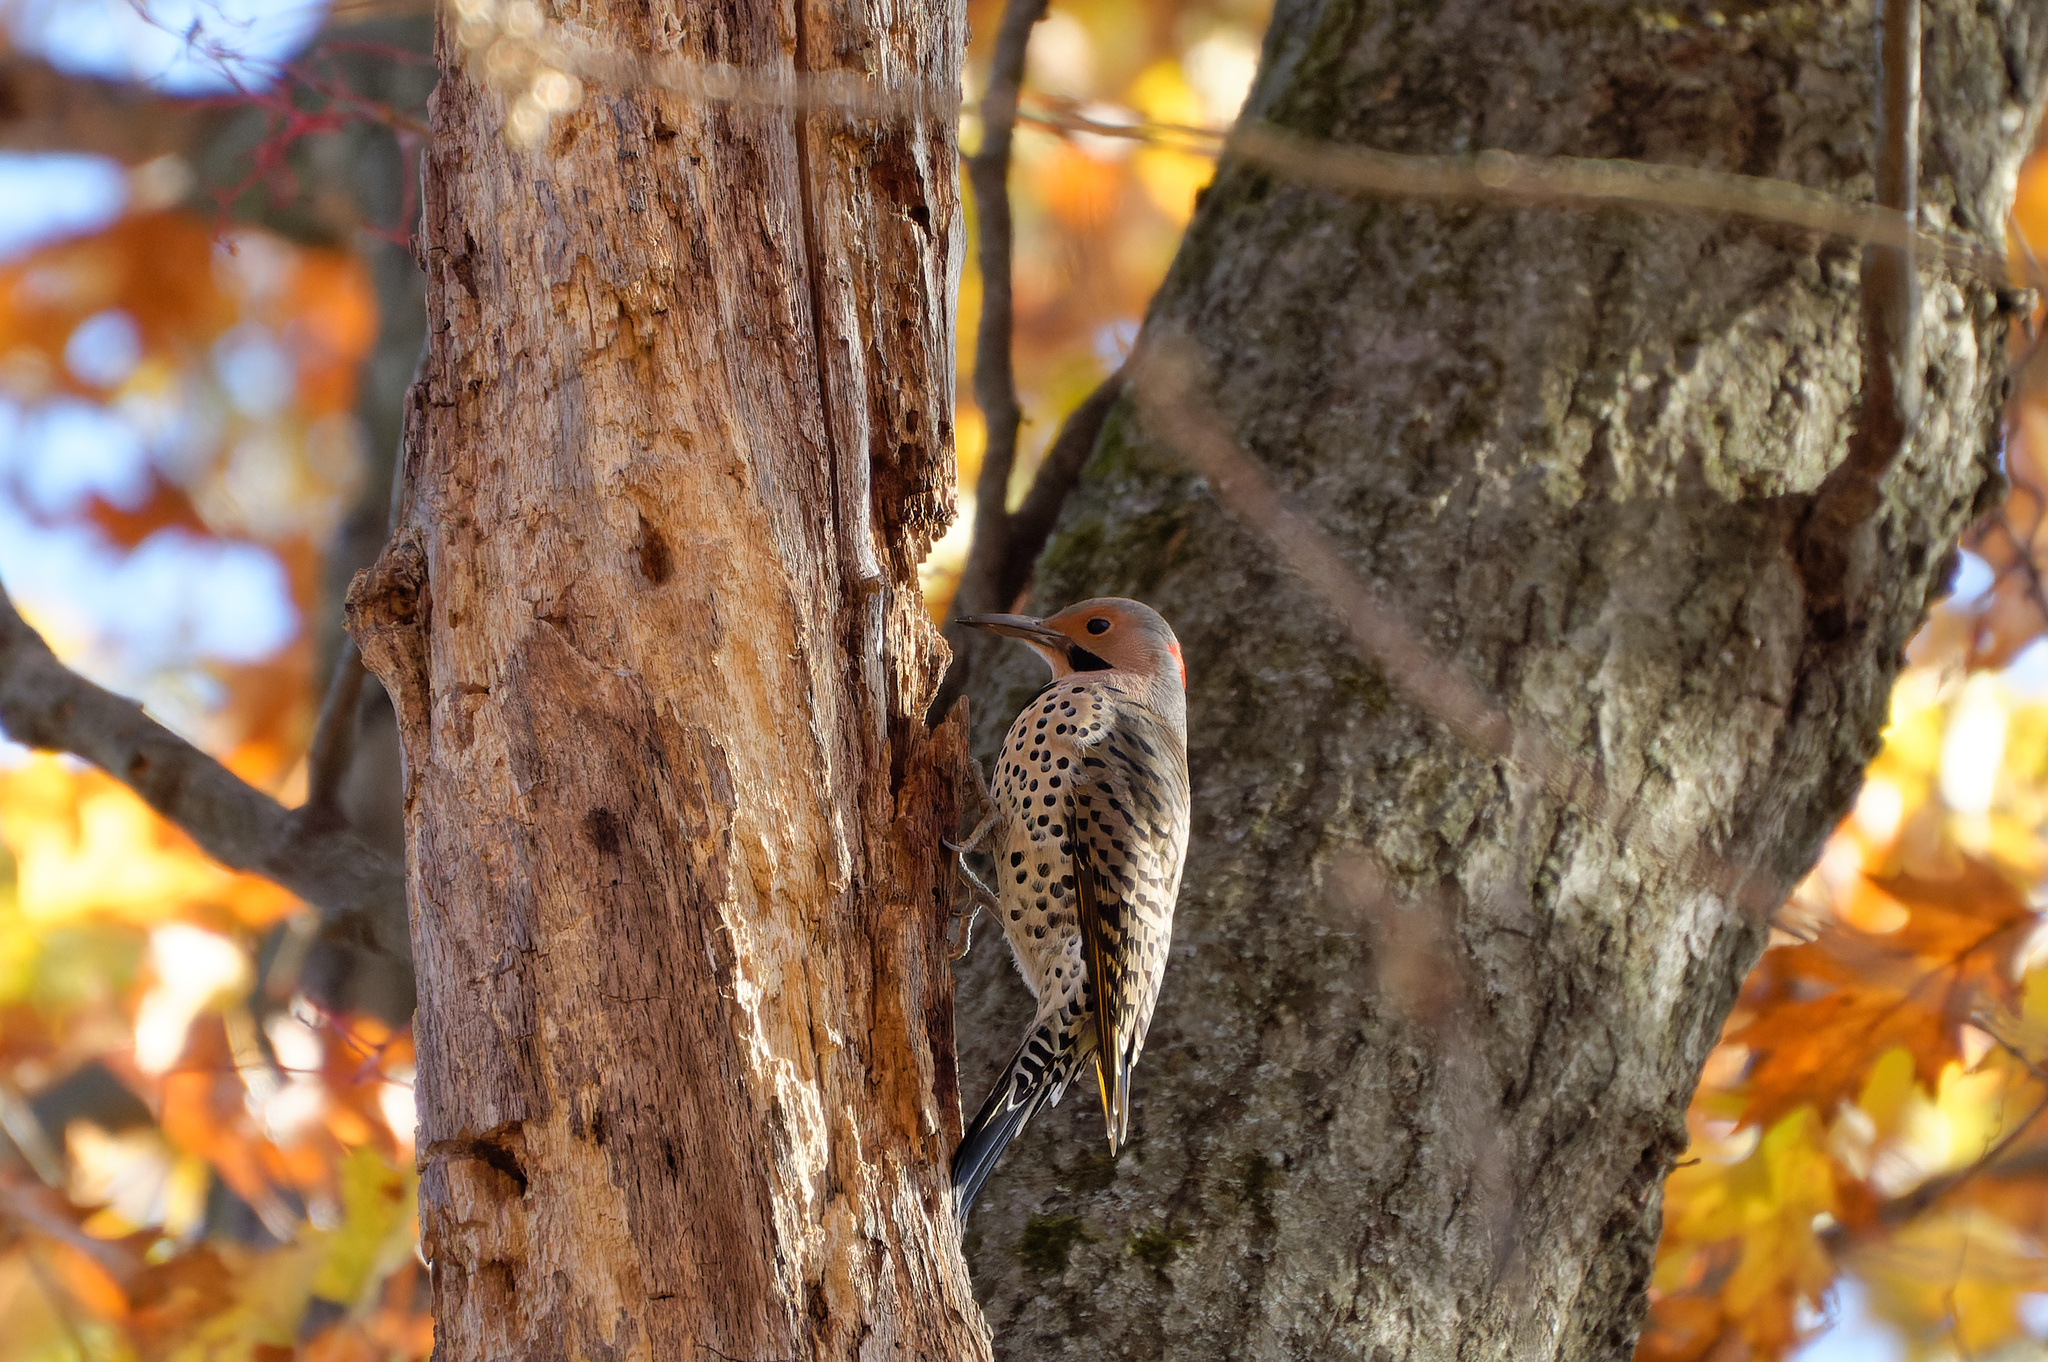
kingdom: Animalia
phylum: Chordata
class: Aves
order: Piciformes
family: Picidae
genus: Colaptes
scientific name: Colaptes auratus
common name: Northern flicker
